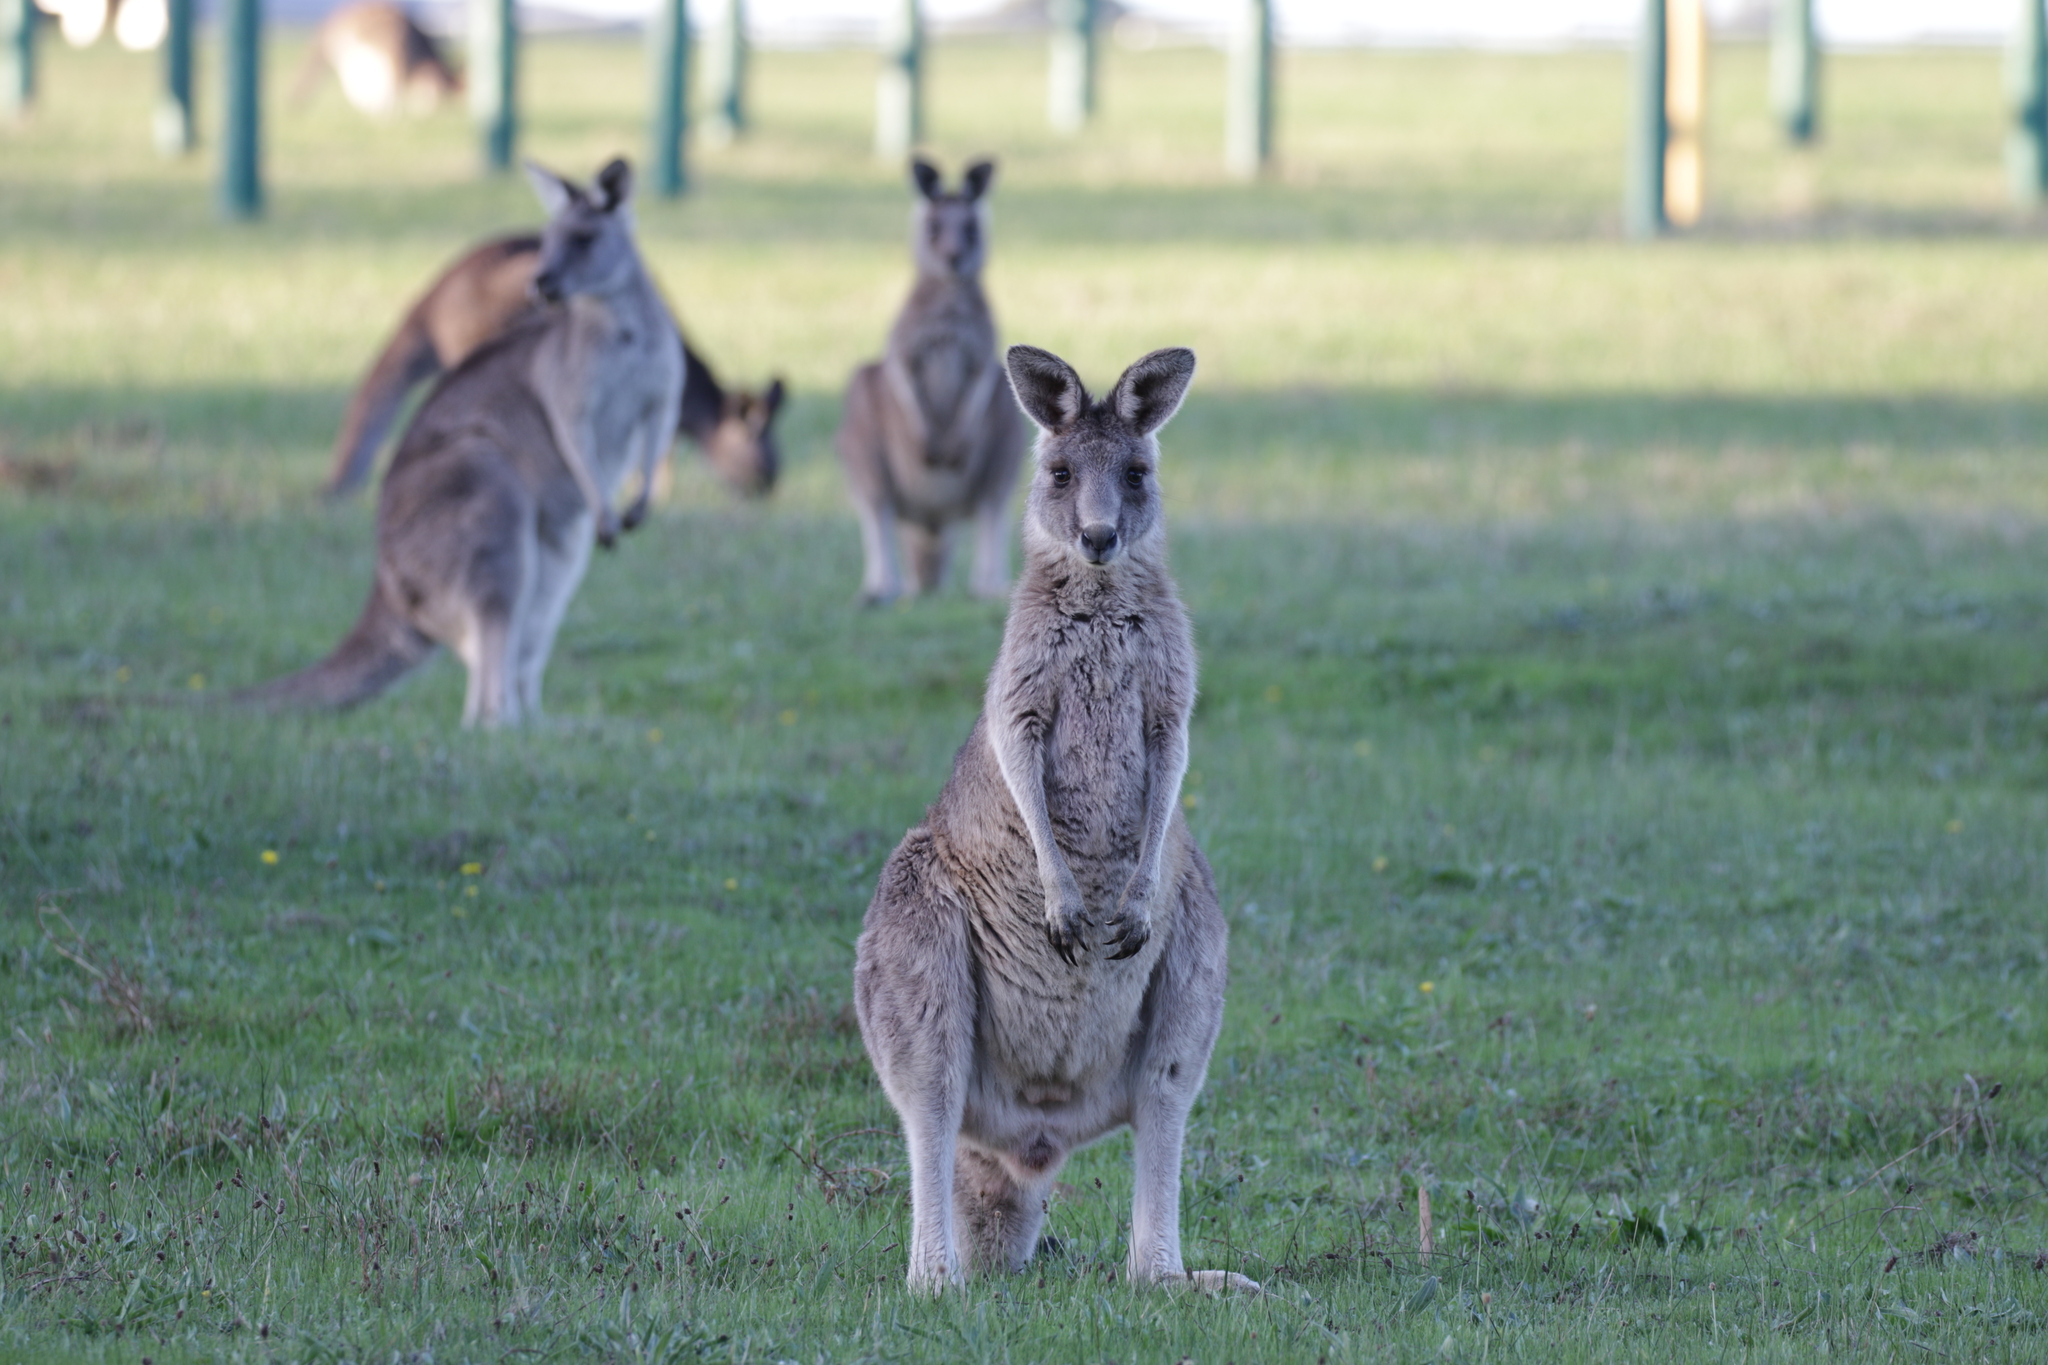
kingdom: Animalia
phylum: Chordata
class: Mammalia
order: Diprotodontia
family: Macropodidae
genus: Macropus
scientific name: Macropus giganteus
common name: Eastern grey kangaroo
